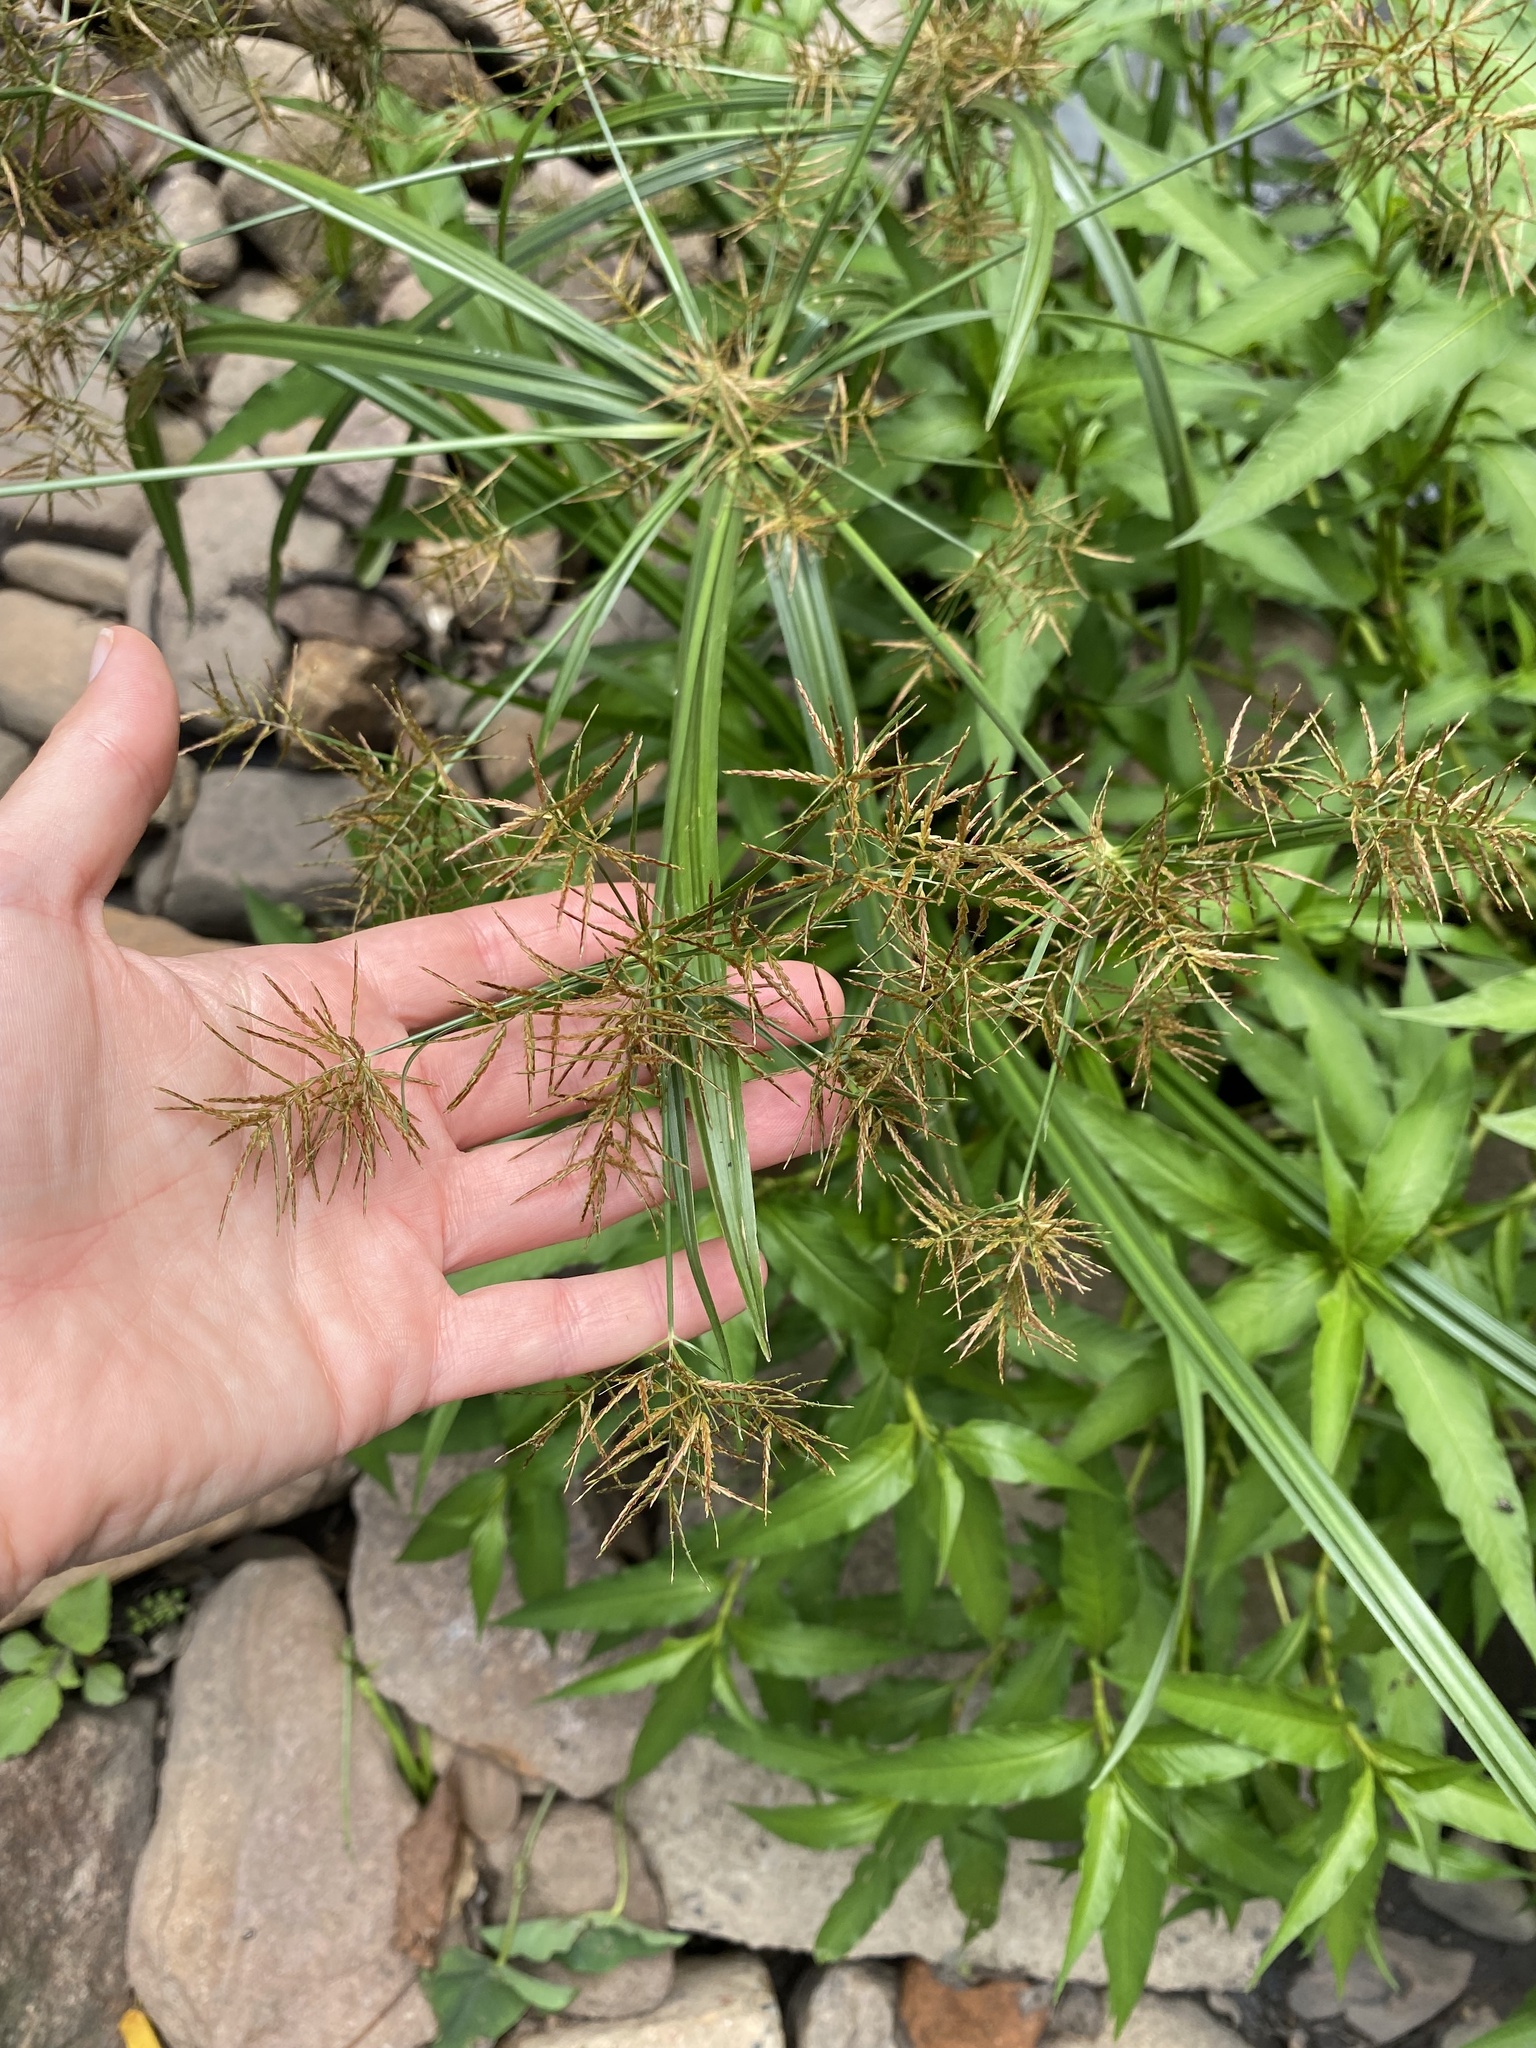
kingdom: Plantae
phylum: Tracheophyta
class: Liliopsida
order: Poales
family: Cyperaceae
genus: Cyperus
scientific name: Cyperus distans
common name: Slender cyperus
